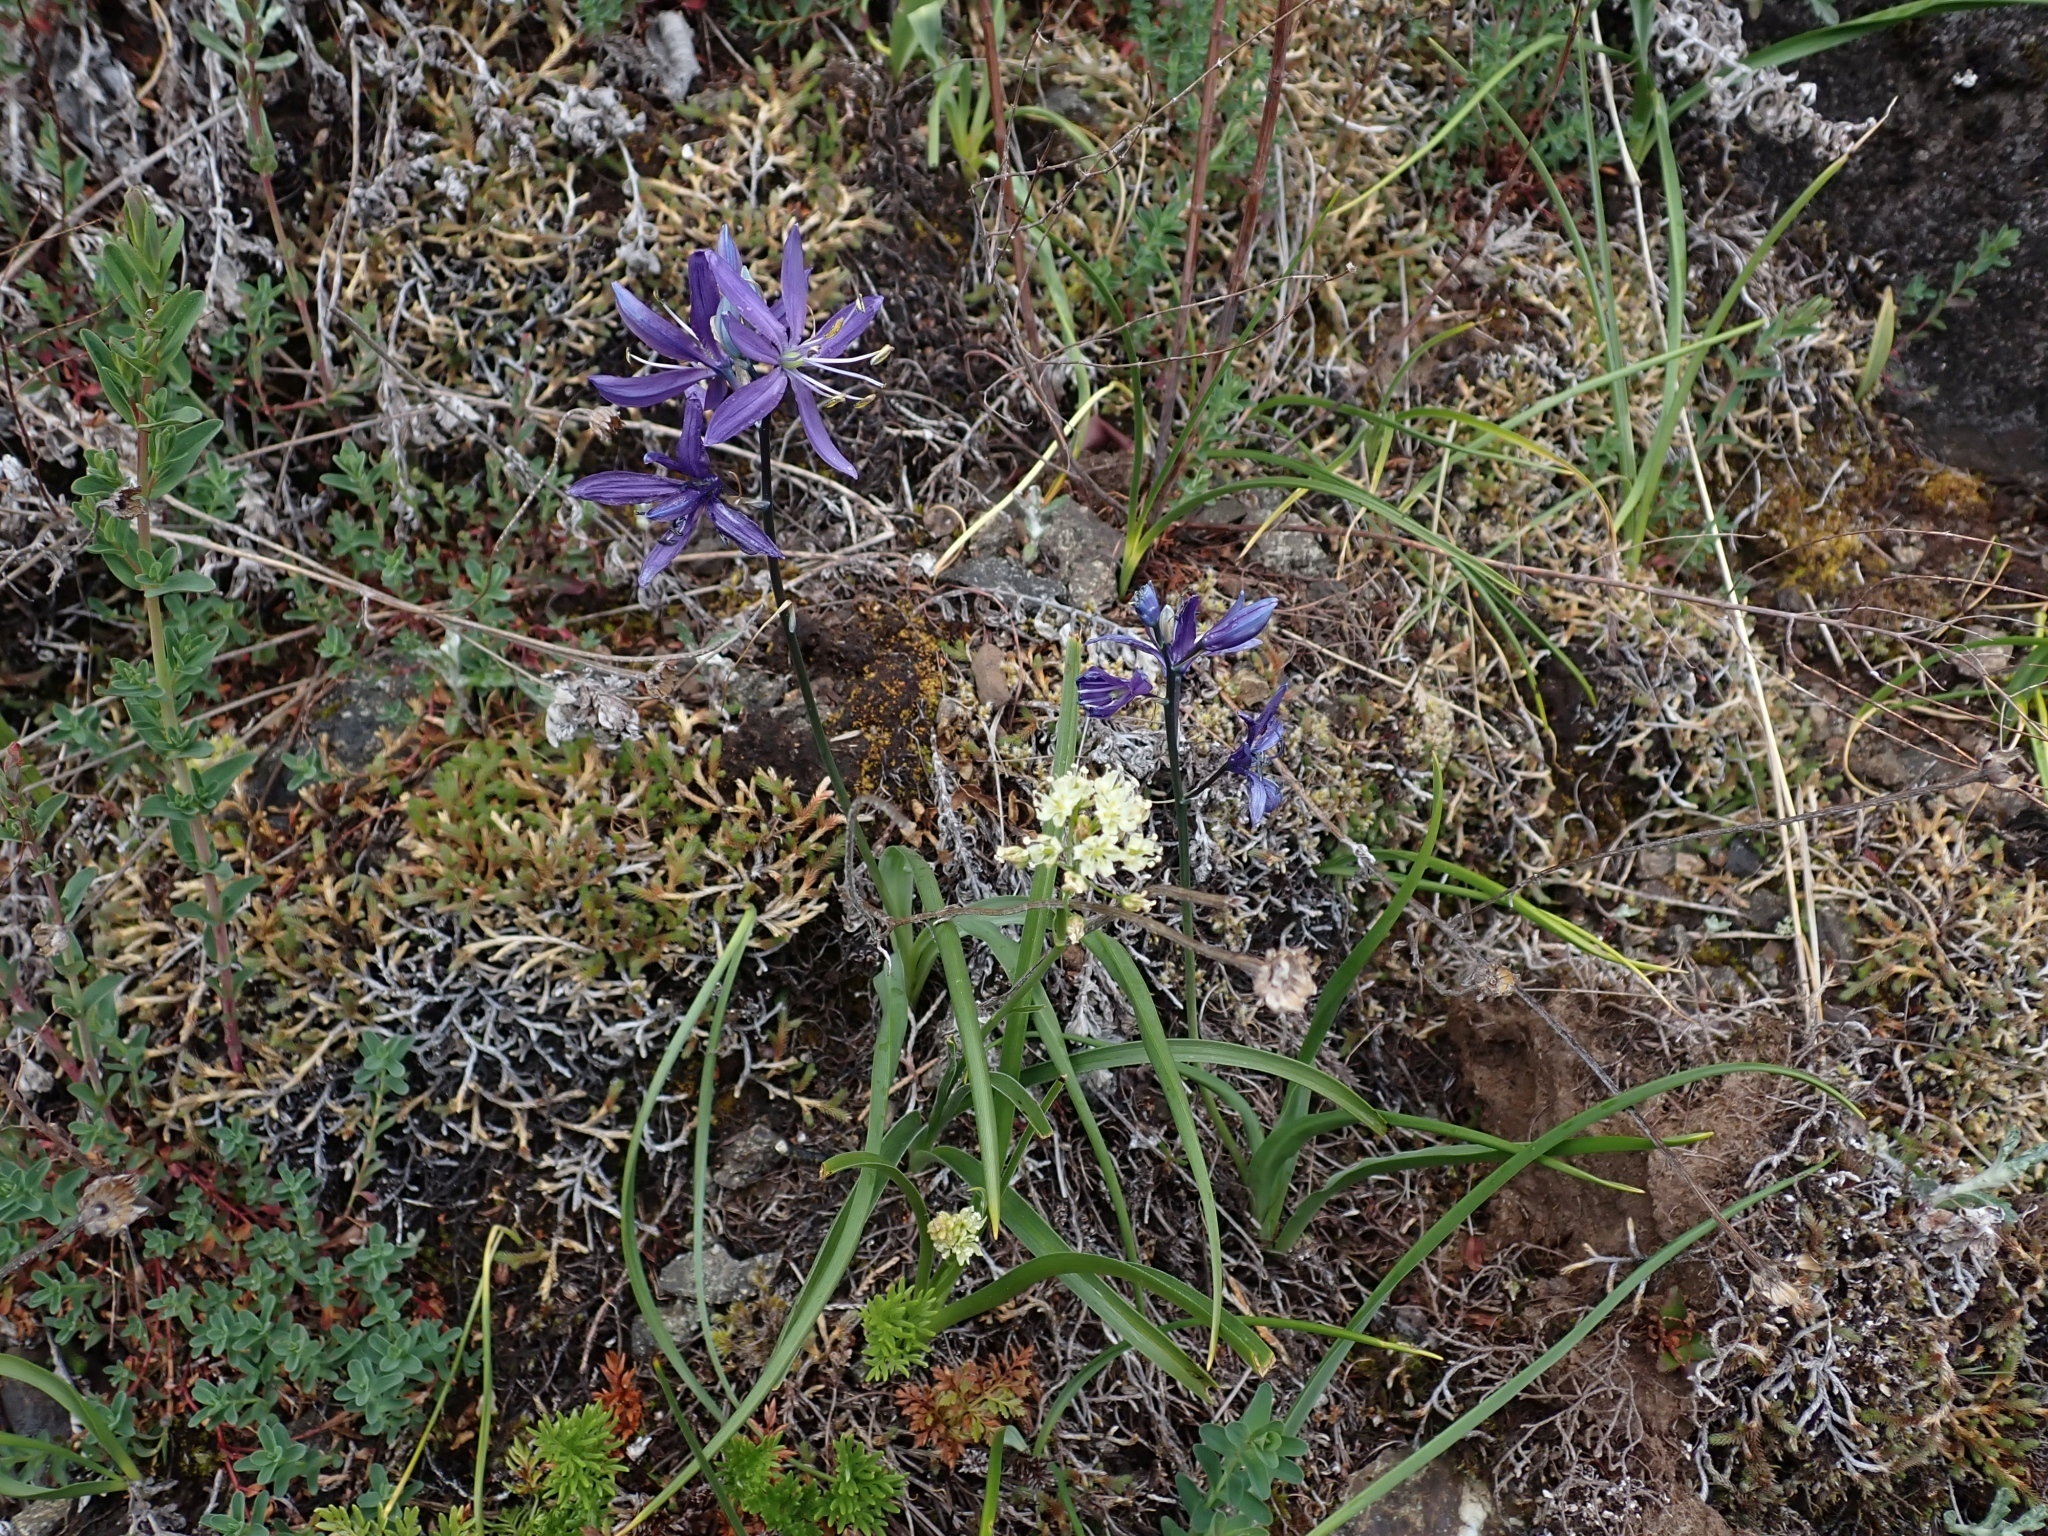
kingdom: Plantae
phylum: Tracheophyta
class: Liliopsida
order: Asparagales
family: Asparagaceae
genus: Camassia
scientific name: Camassia quamash
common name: Common camas
